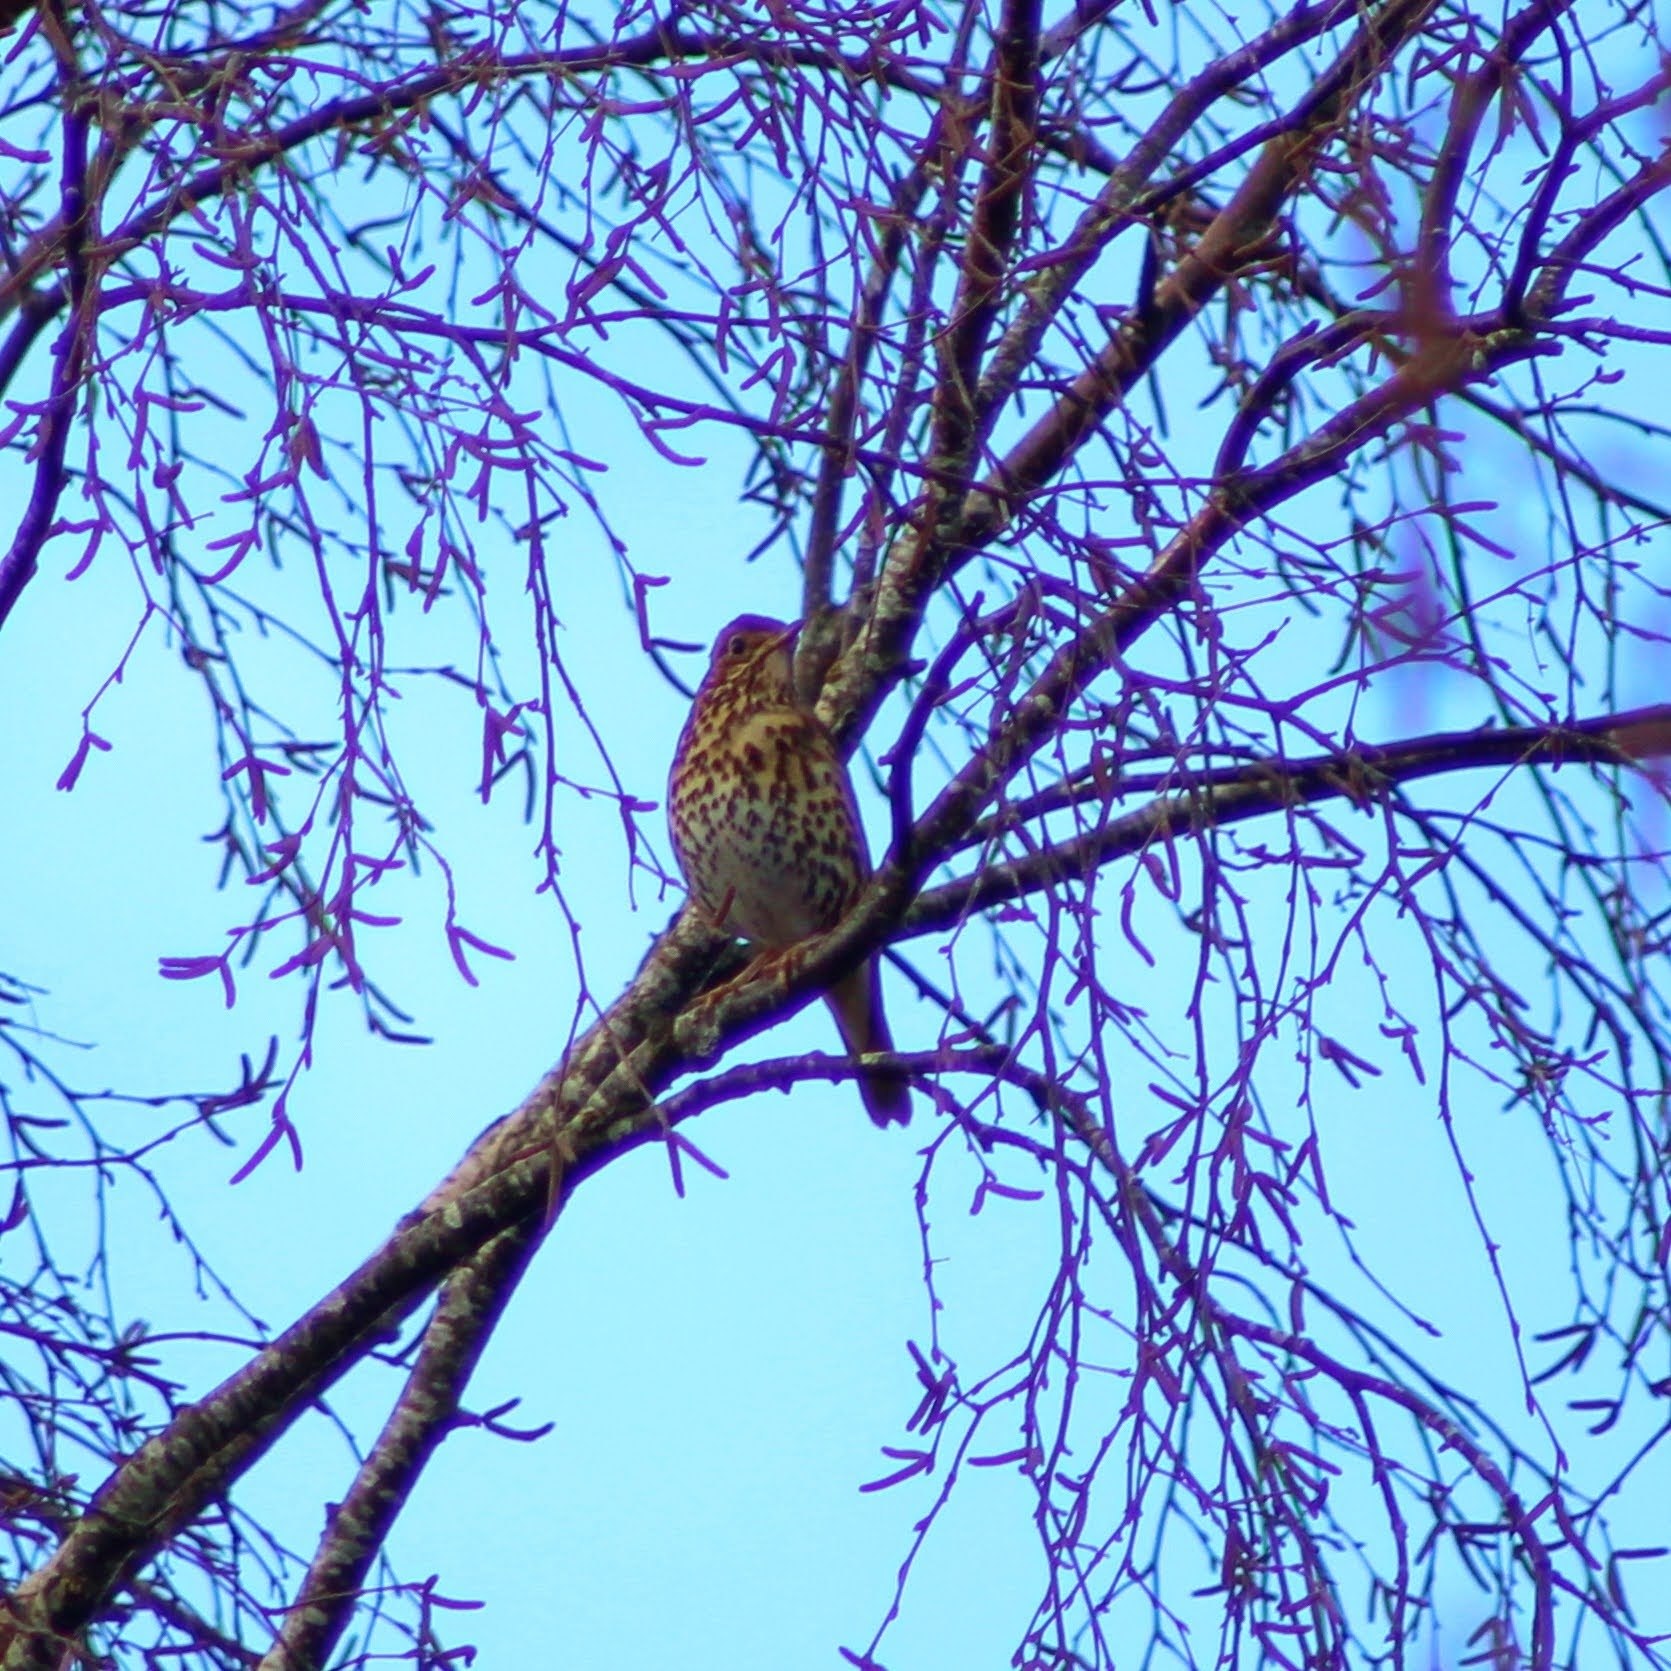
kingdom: Animalia
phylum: Chordata
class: Aves
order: Passeriformes
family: Turdidae
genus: Turdus
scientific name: Turdus philomelos
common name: Song thrush
